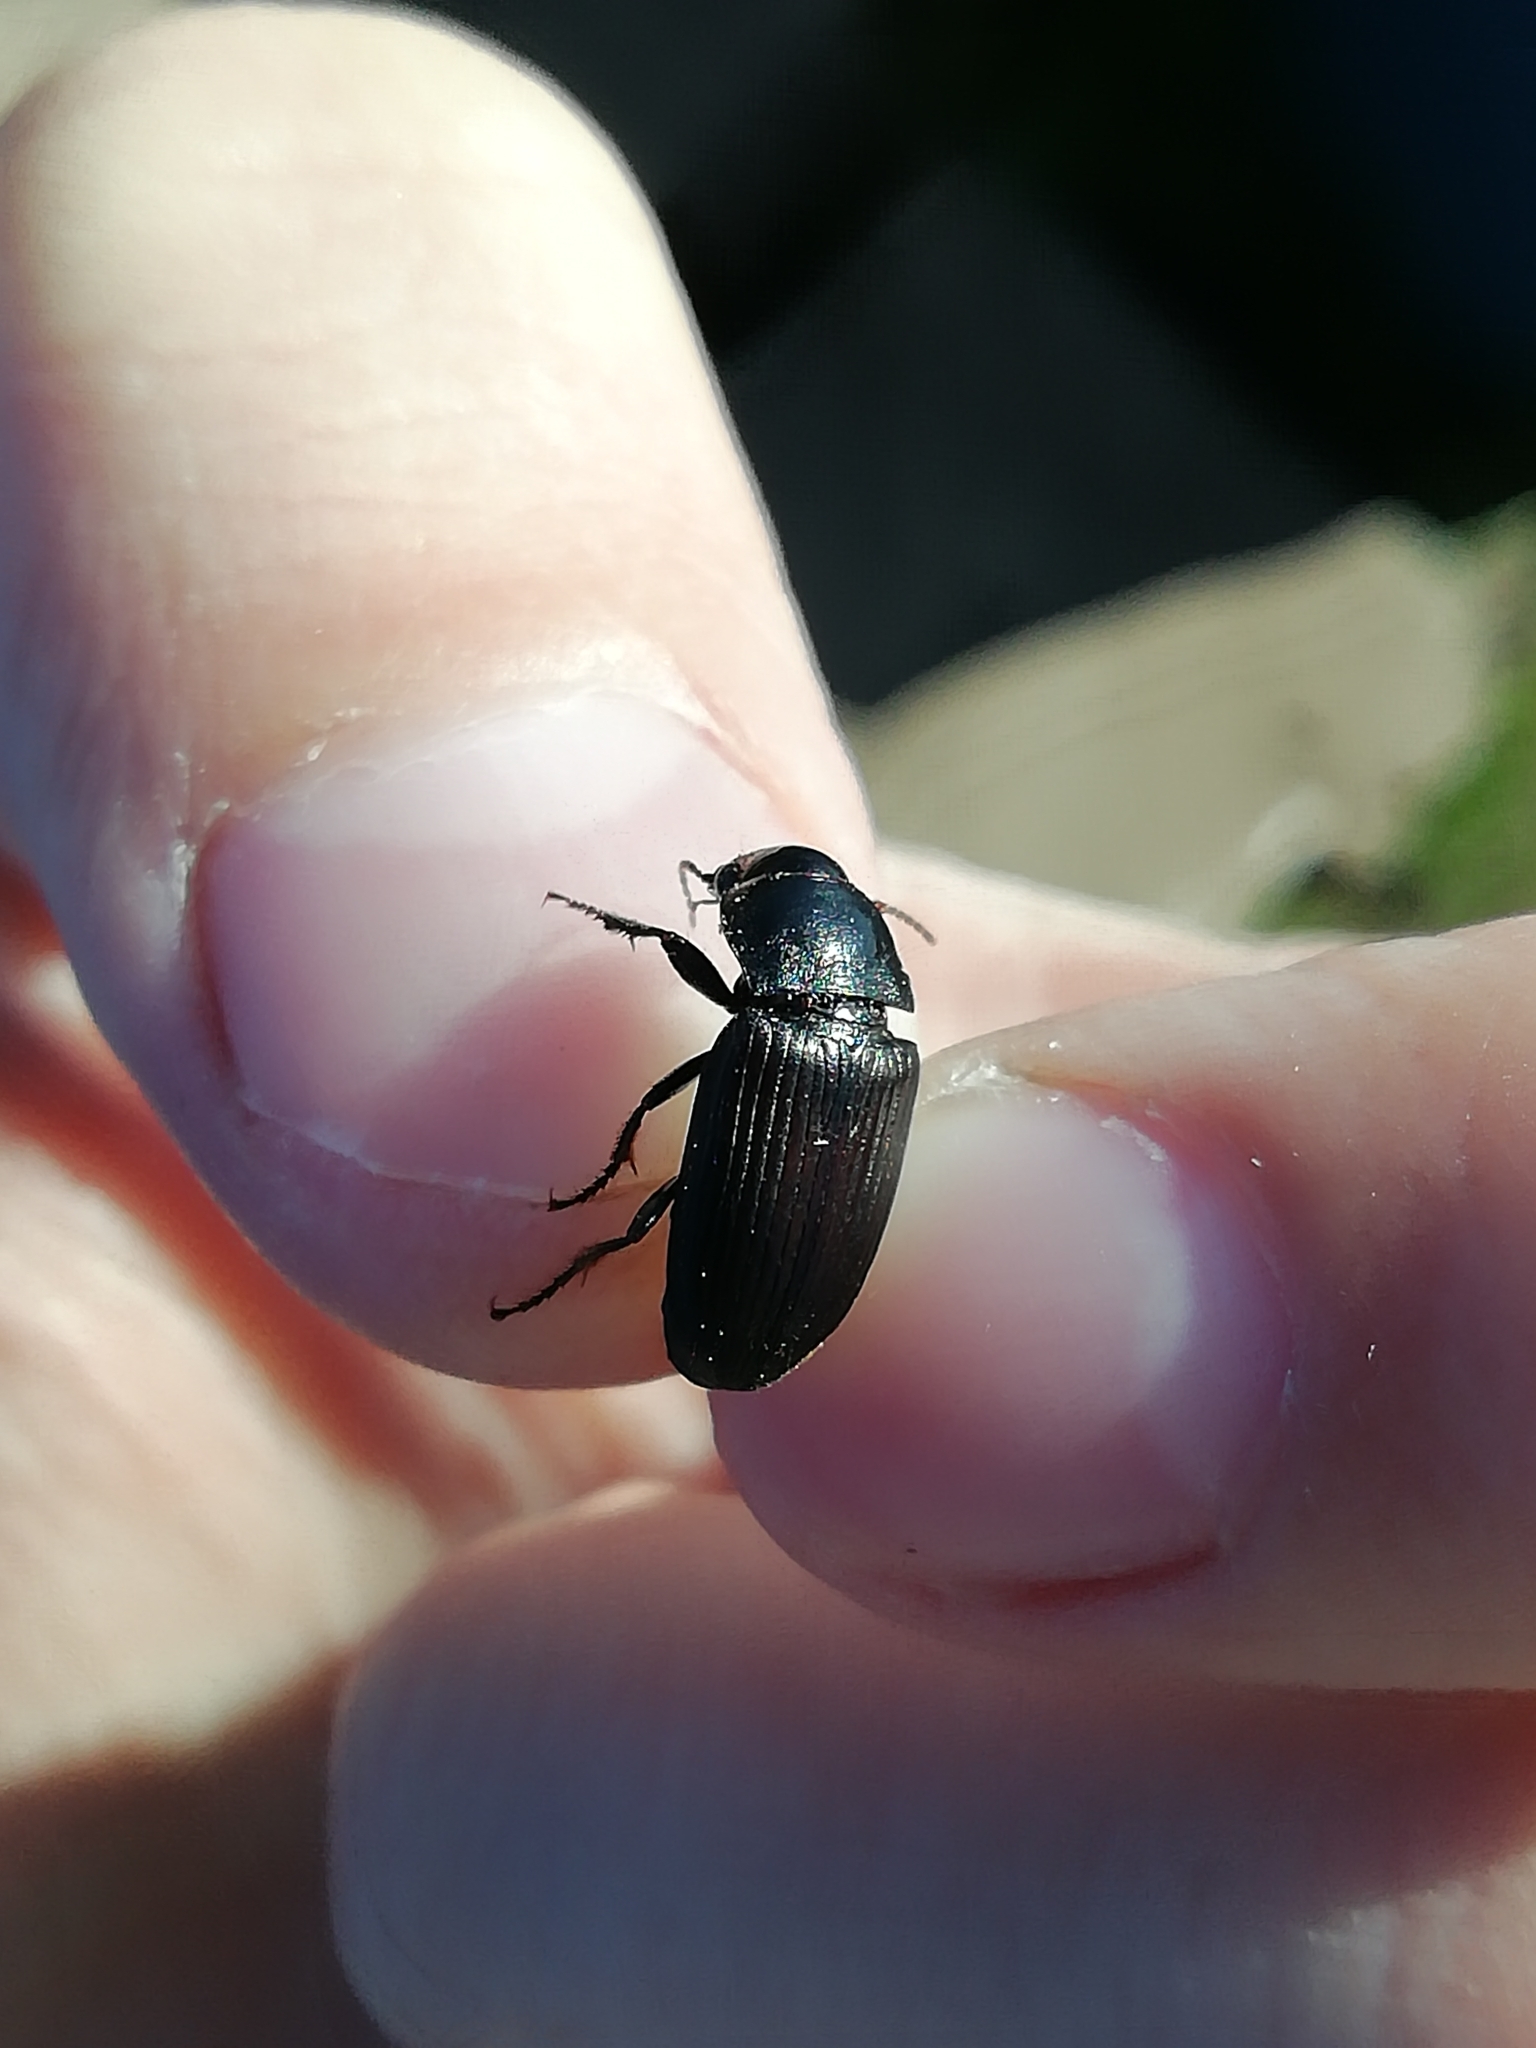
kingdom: Animalia
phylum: Arthropoda
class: Insecta
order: Coleoptera
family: Carabidae
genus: Harpalus
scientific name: Harpalus distinguendus
